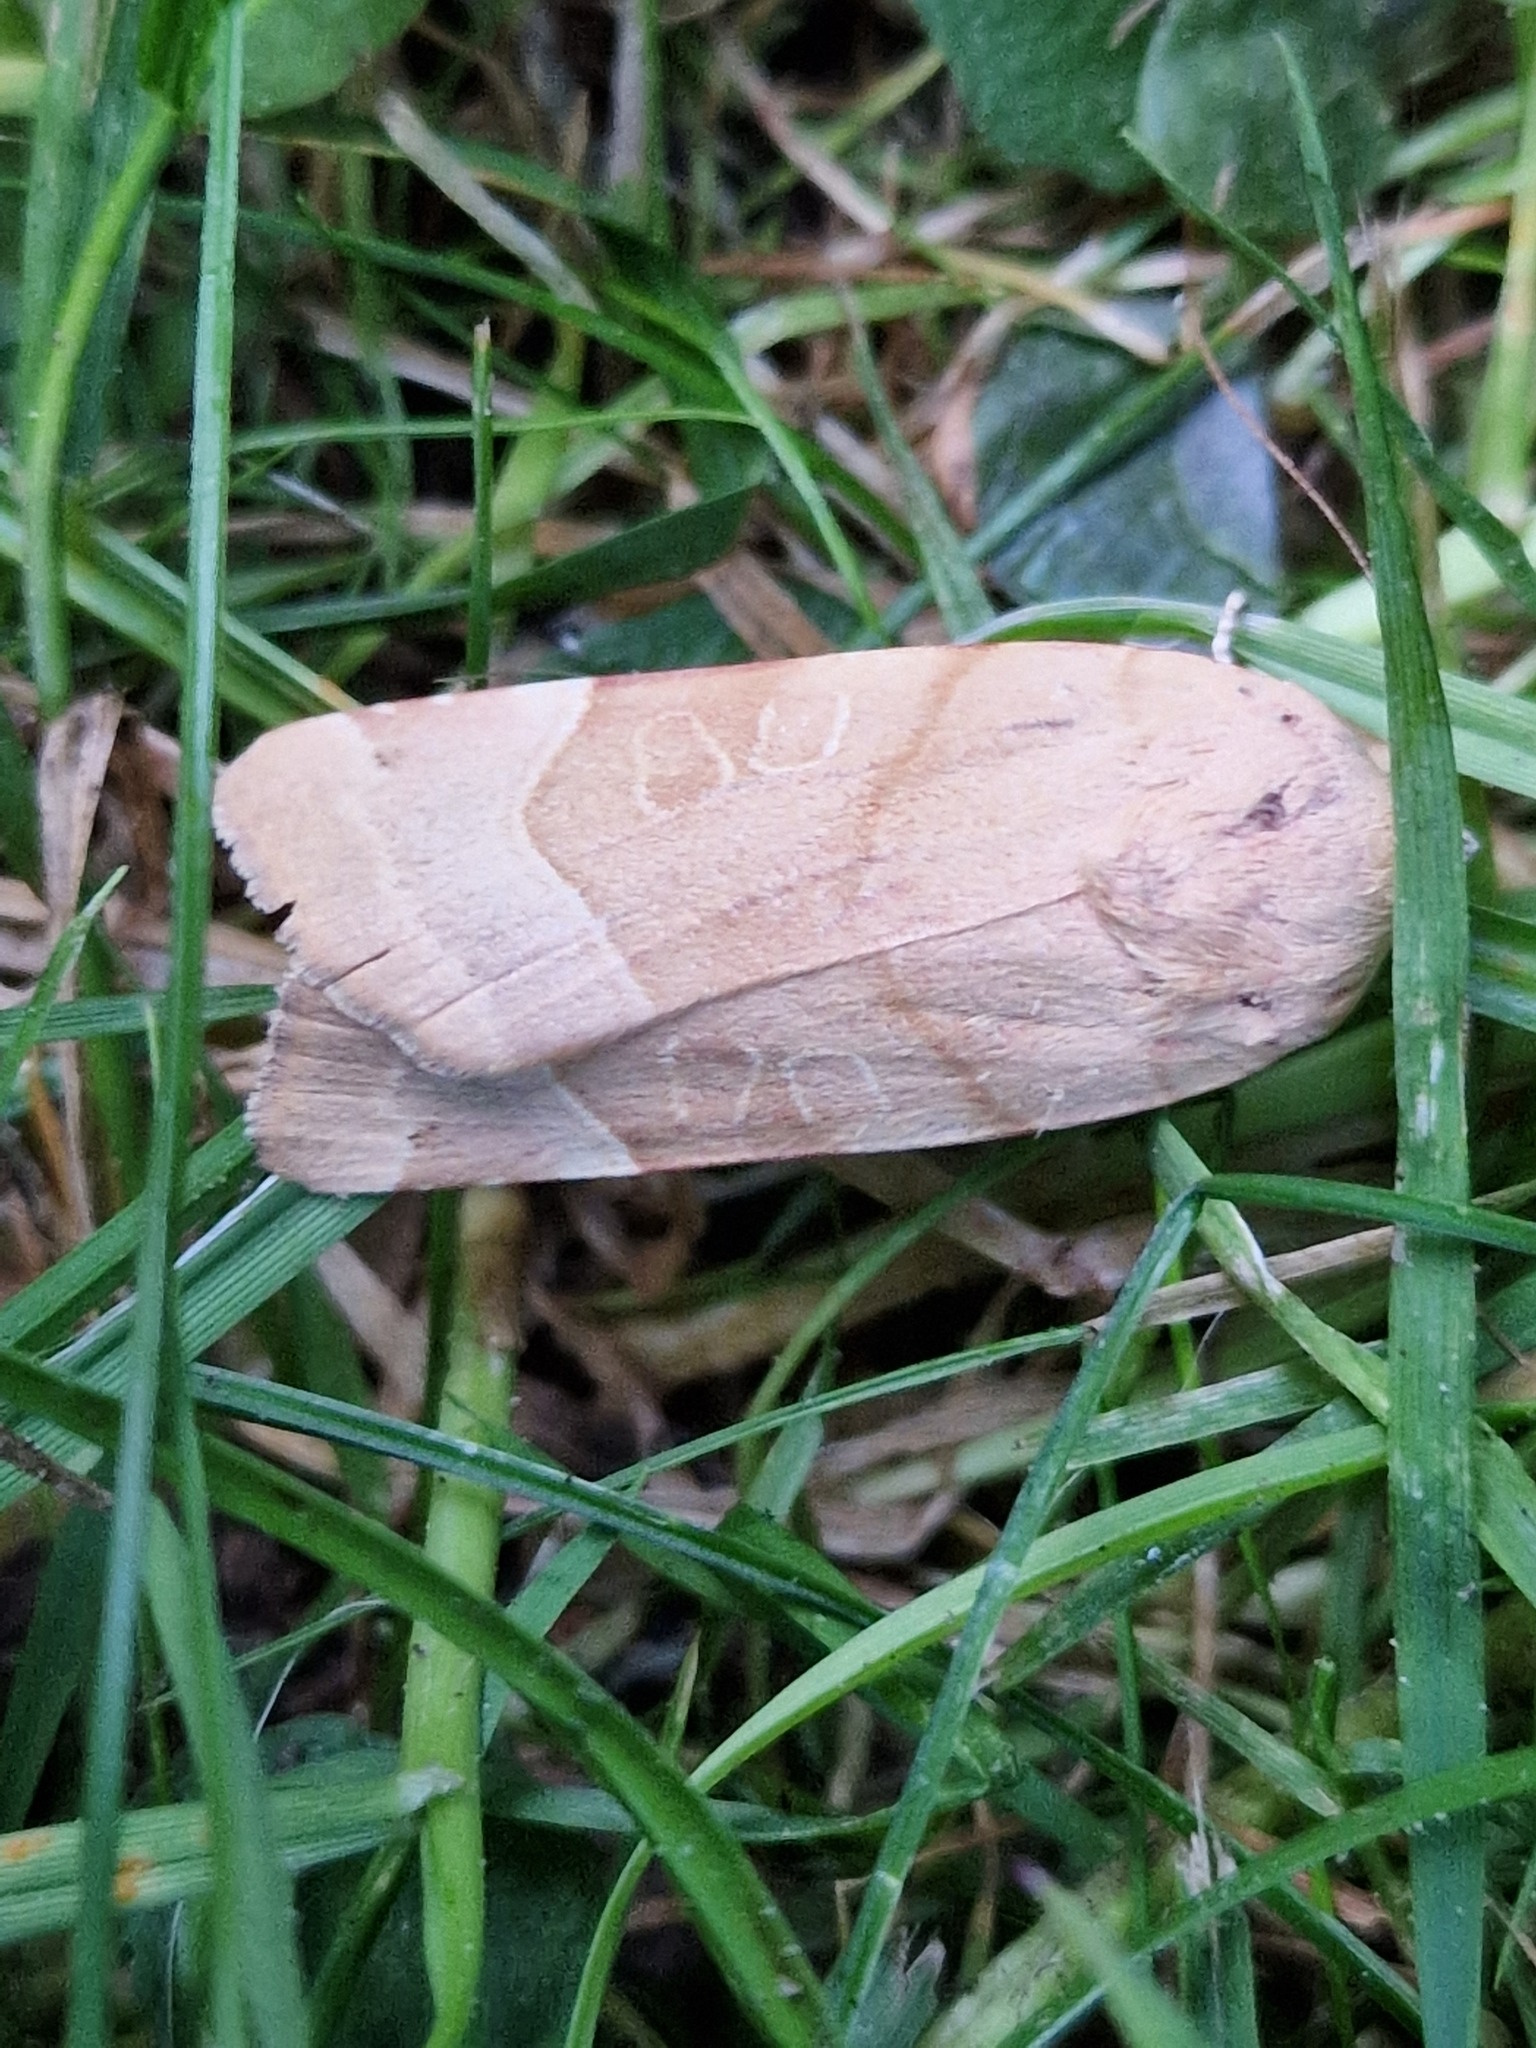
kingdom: Animalia
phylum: Arthropoda
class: Insecta
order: Lepidoptera
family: Noctuidae
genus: Noctua
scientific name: Noctua fimbriata
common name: Broad-bordered yellow underwing
